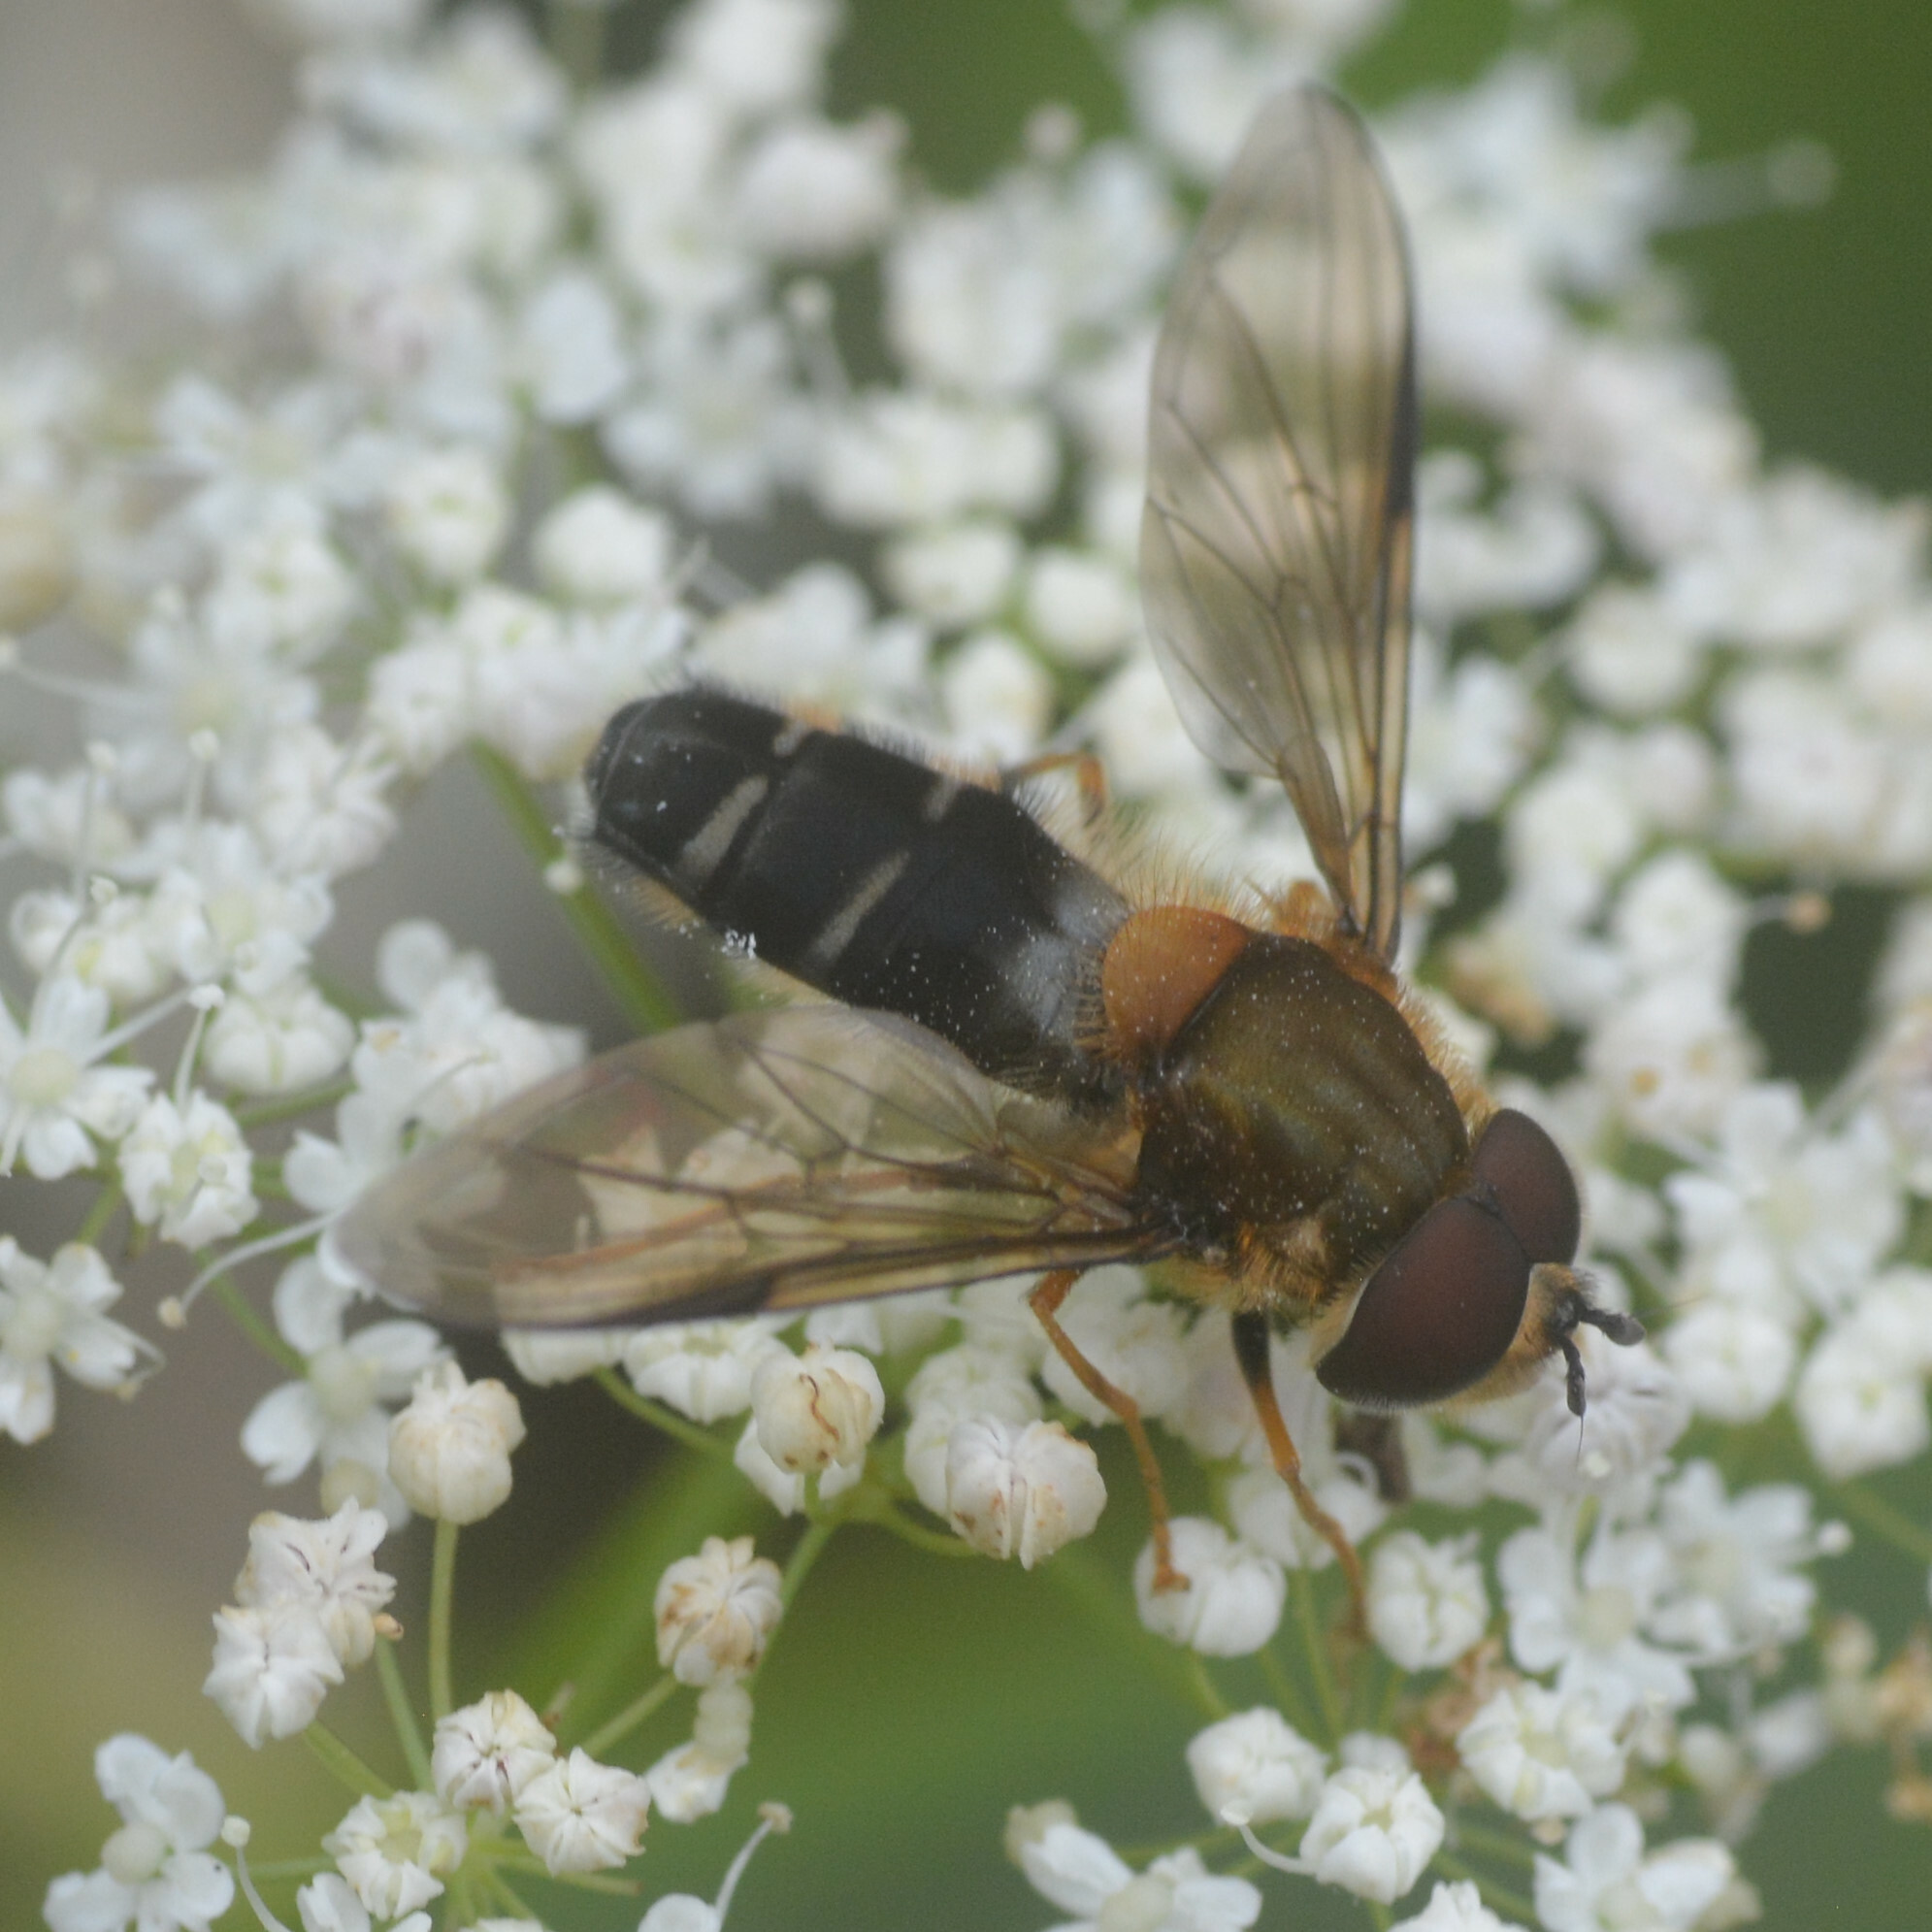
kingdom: Animalia
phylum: Arthropoda
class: Insecta
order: Diptera
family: Syrphidae
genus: Leucozona
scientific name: Leucozona glaucia
